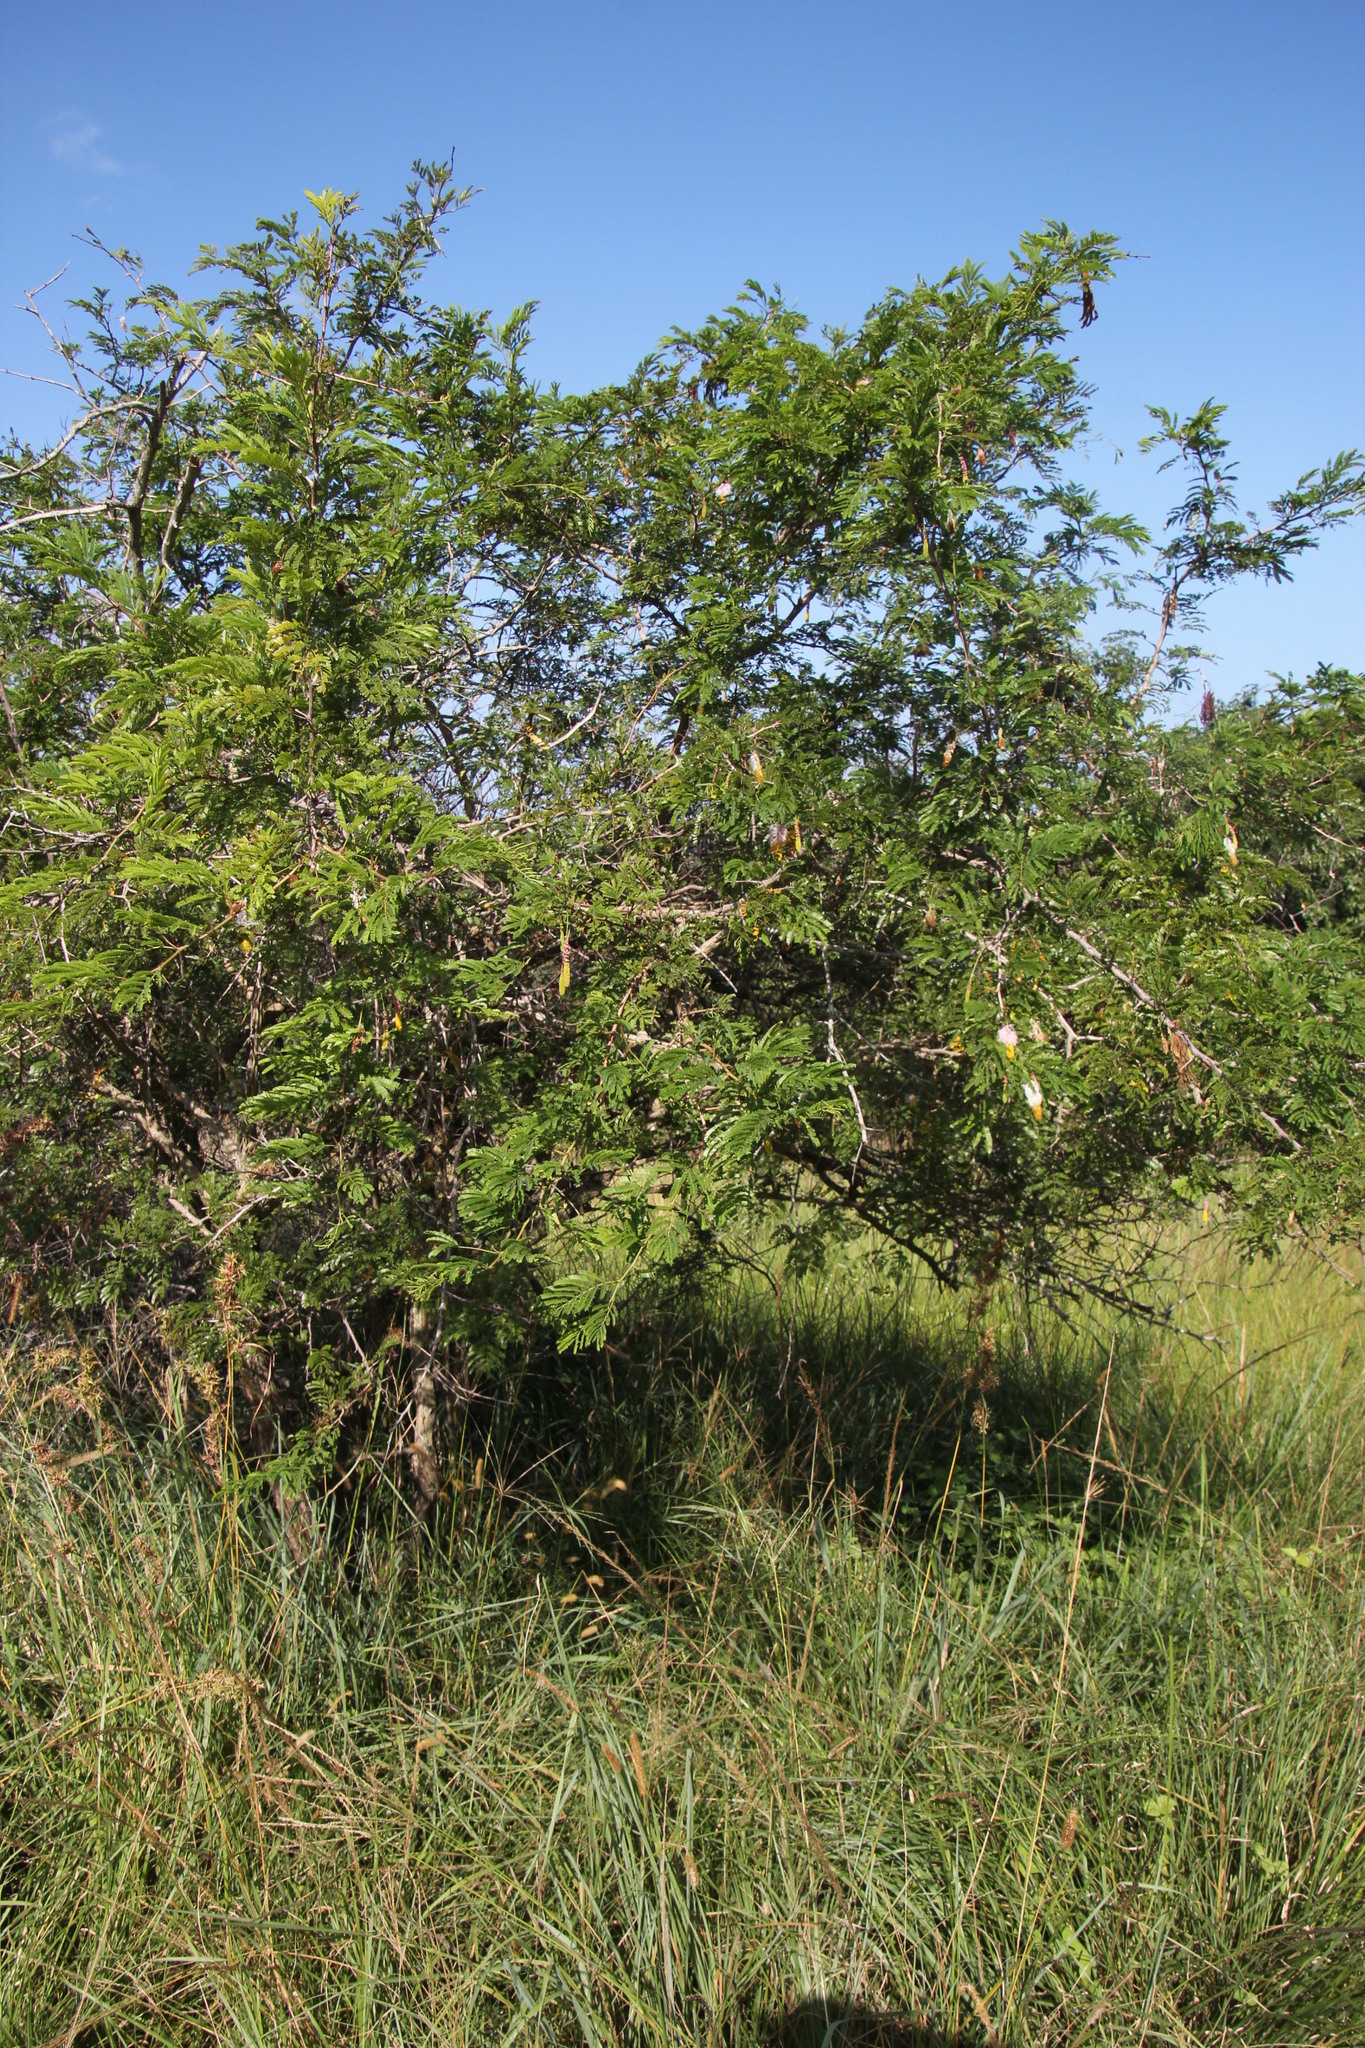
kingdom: Plantae
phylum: Tracheophyta
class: Magnoliopsida
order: Fabales
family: Fabaceae
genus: Dichrostachys
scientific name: Dichrostachys cinerea
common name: Sicklebush
